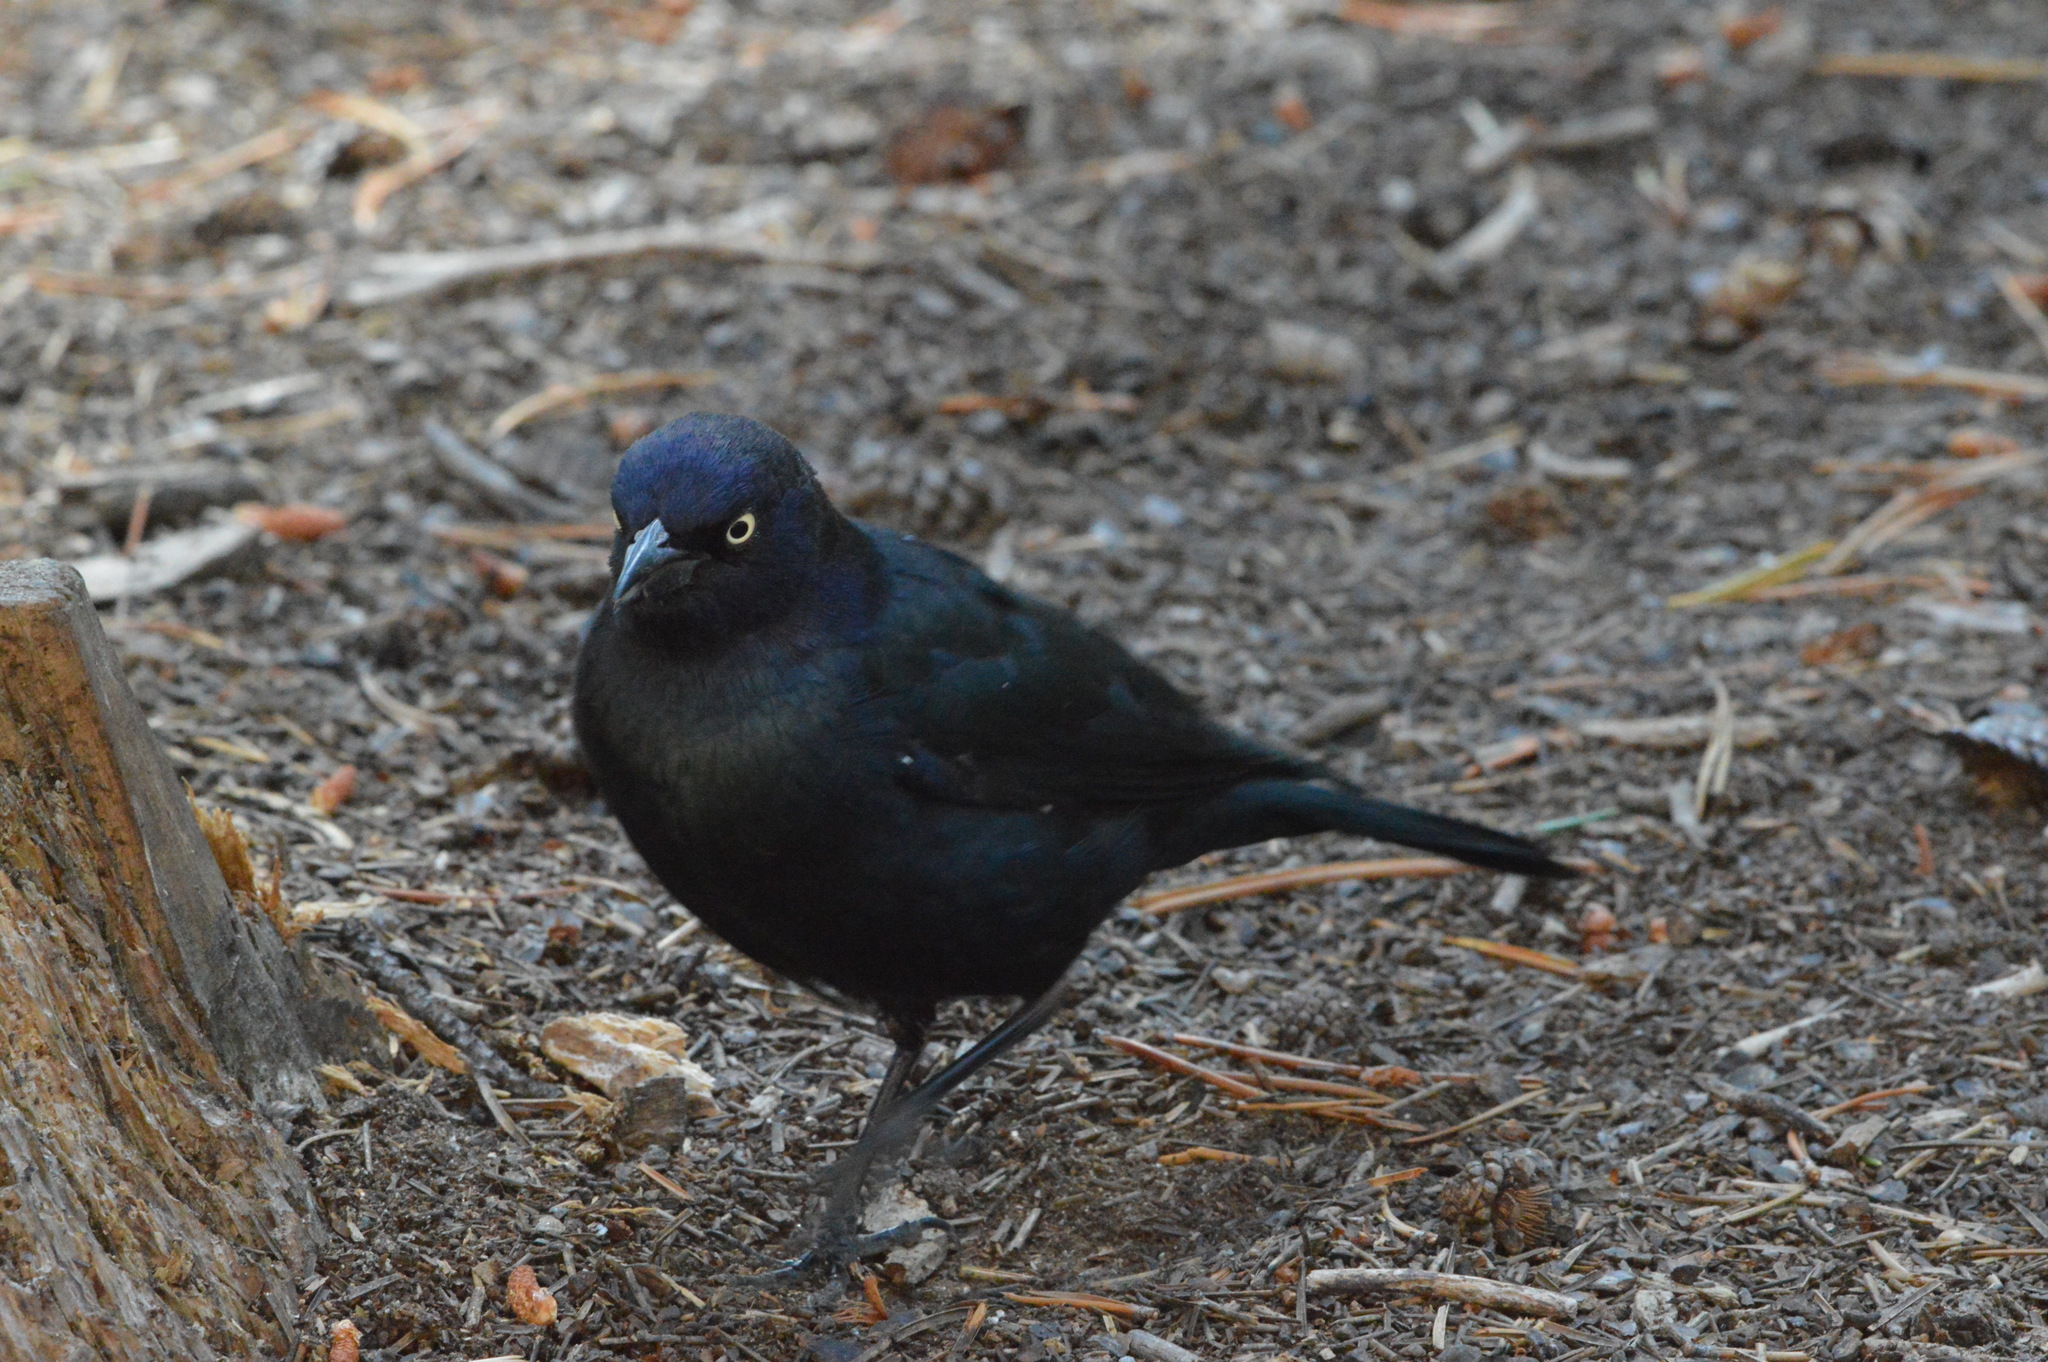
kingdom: Animalia
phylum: Chordata
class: Aves
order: Passeriformes
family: Icteridae
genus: Euphagus
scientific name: Euphagus cyanocephalus
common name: Brewer's blackbird
